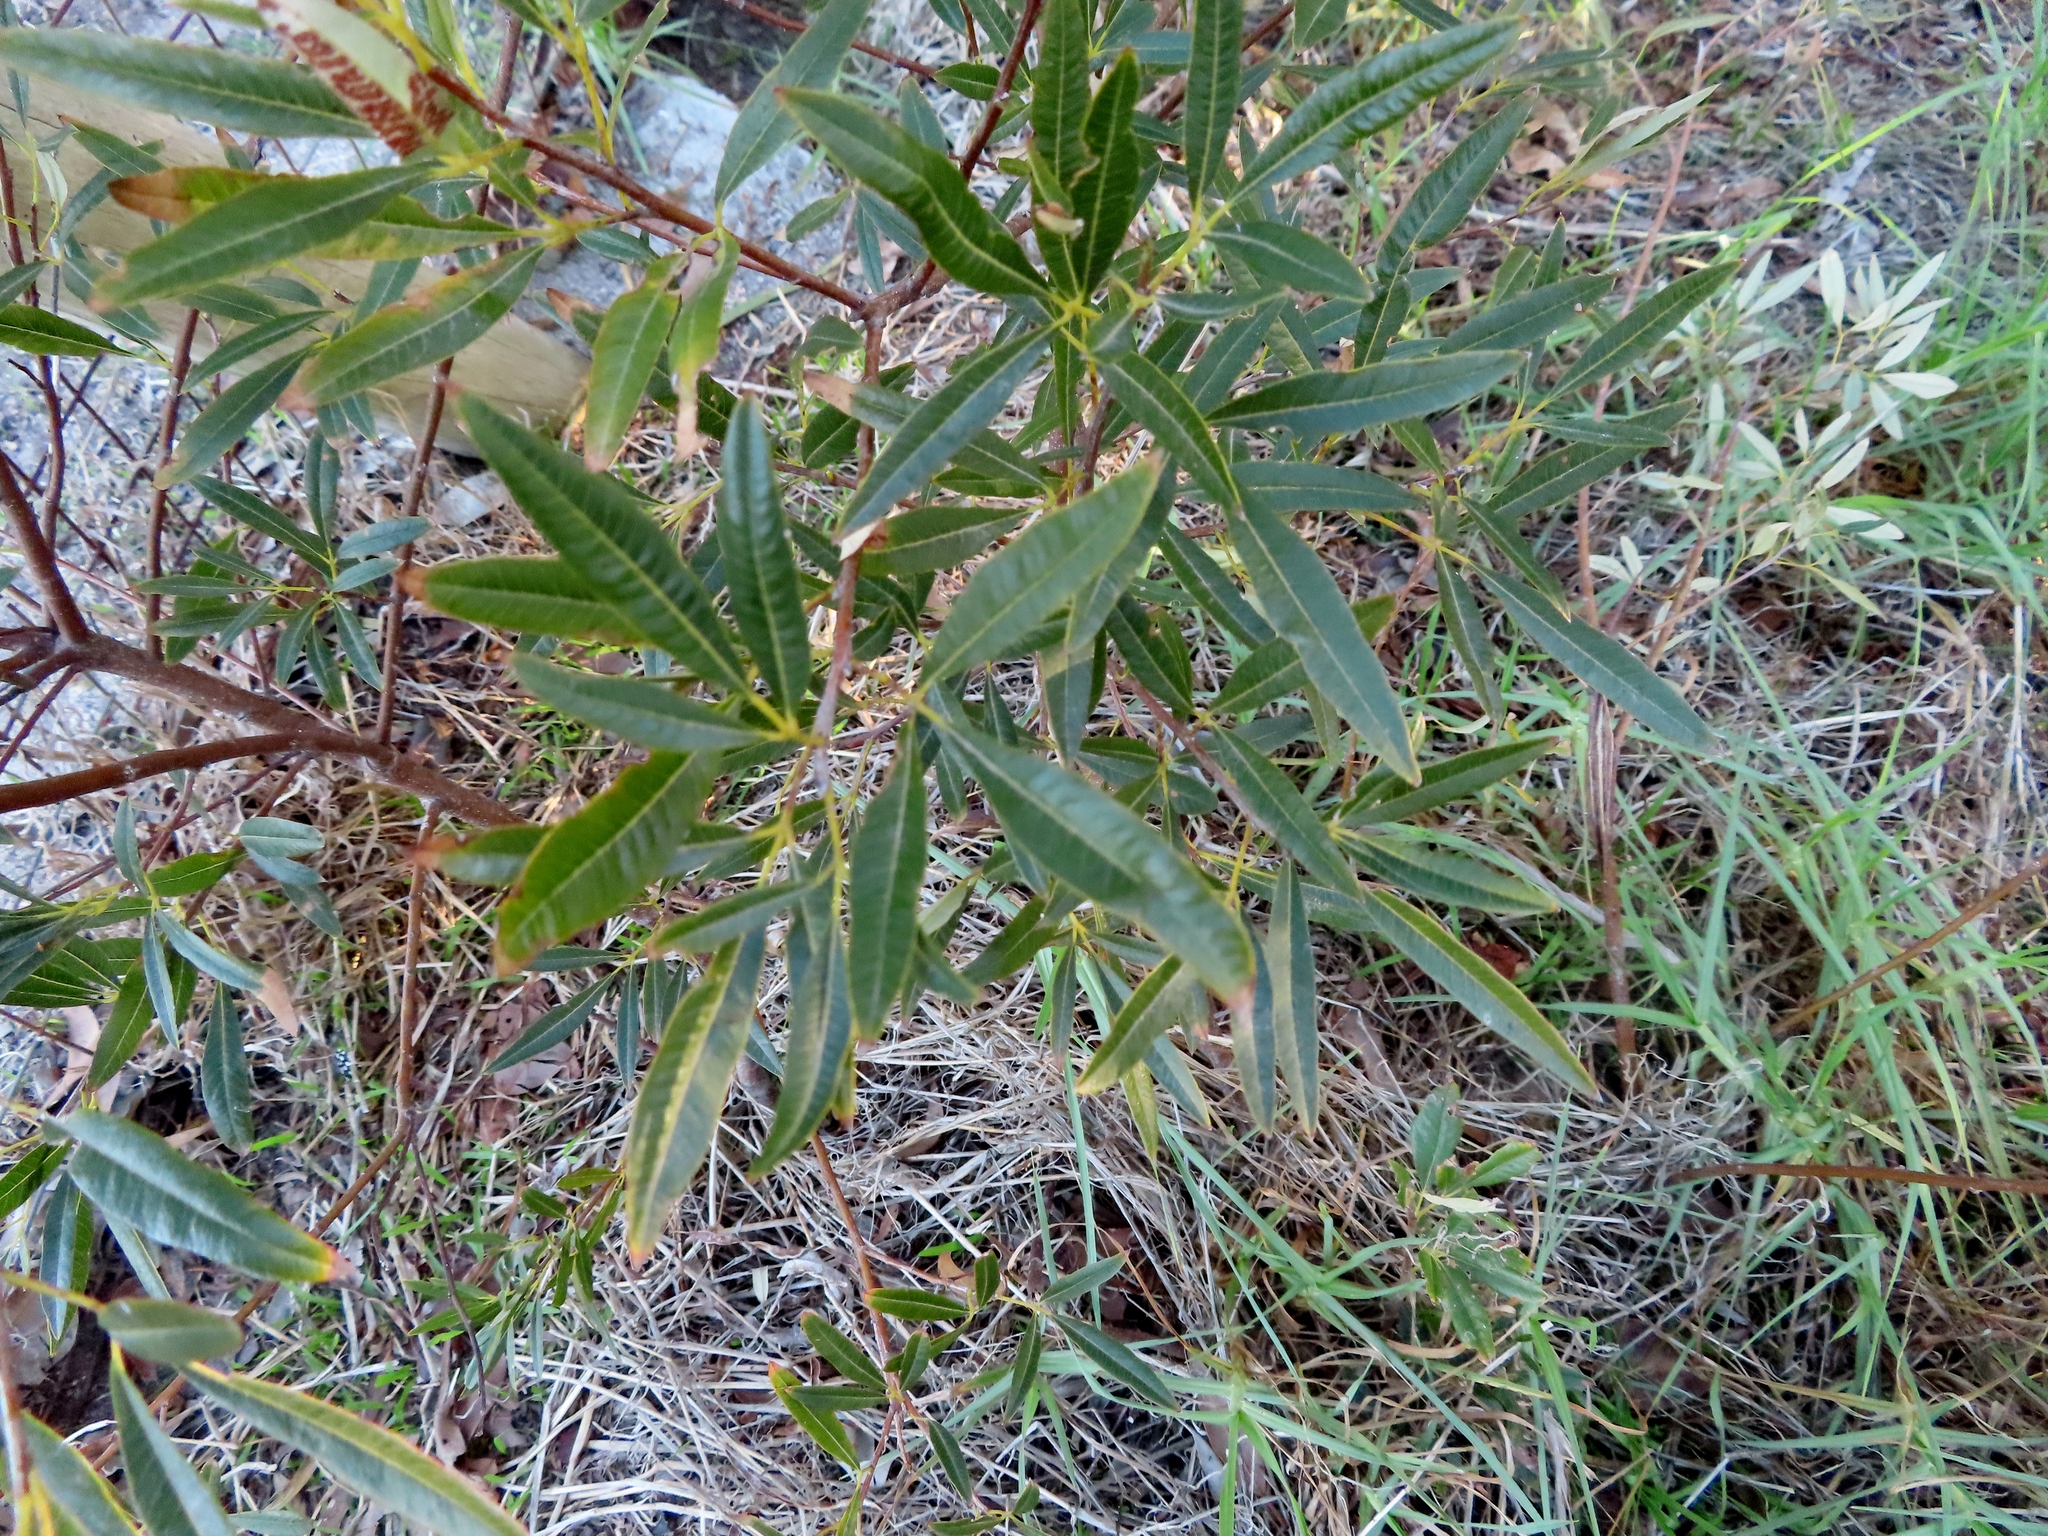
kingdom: Plantae
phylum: Tracheophyta
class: Magnoliopsida
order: Sapindales
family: Anacardiaceae
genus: Searsia
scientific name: Searsia angustifolia
